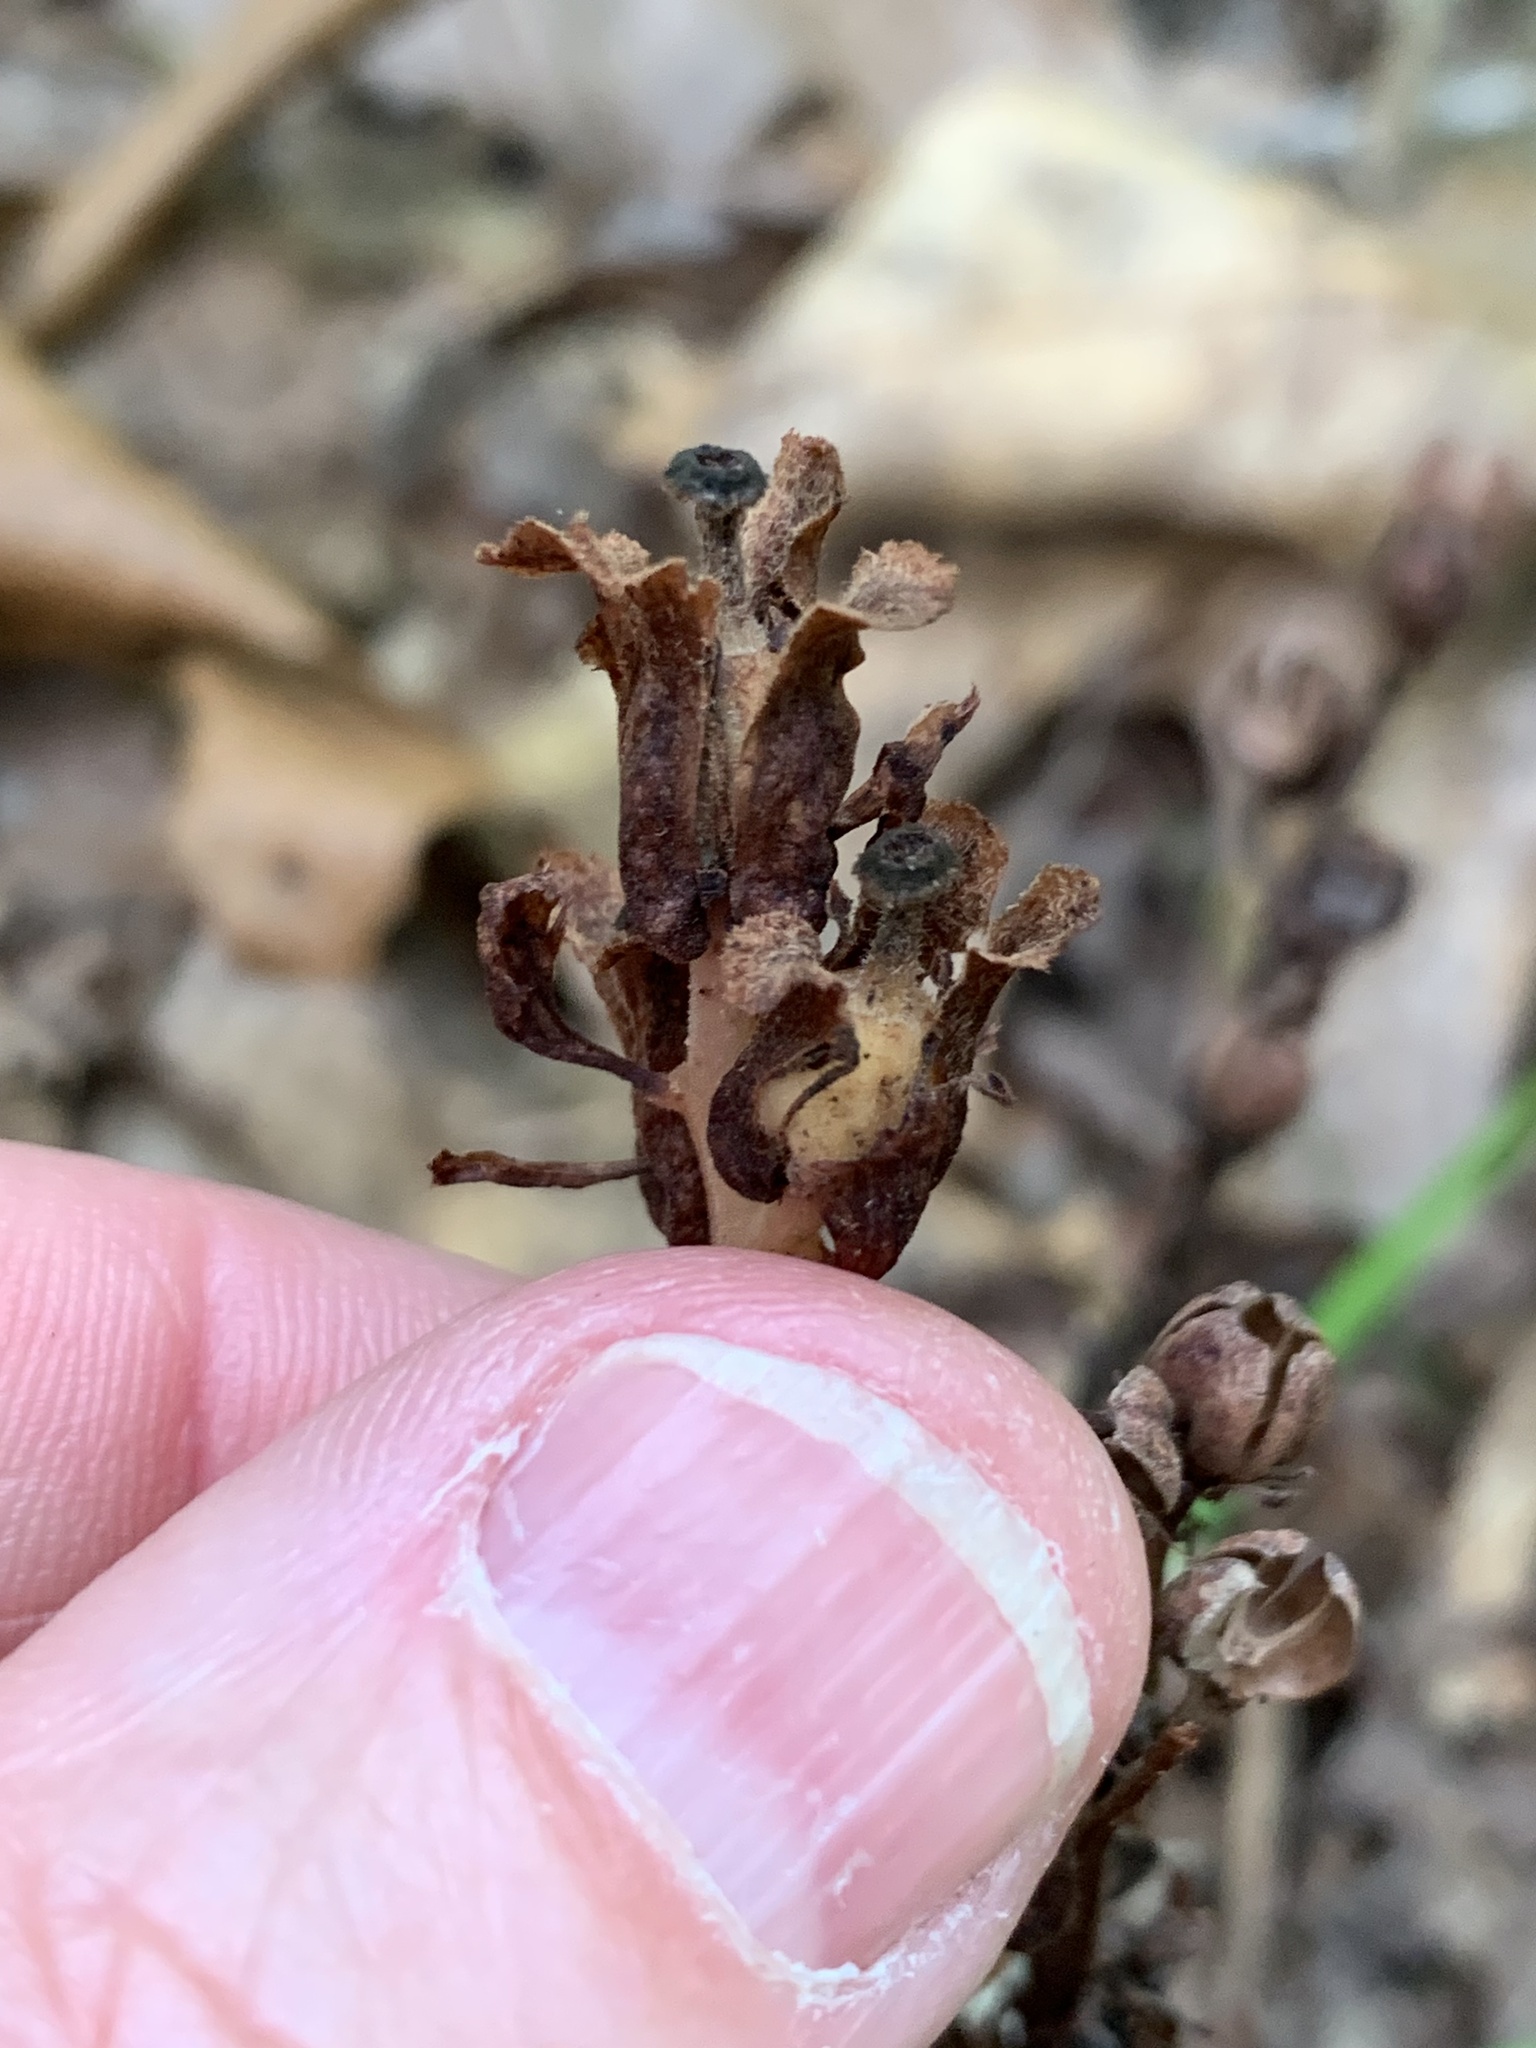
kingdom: Plantae
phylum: Tracheophyta
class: Magnoliopsida
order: Ericales
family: Ericaceae
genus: Hypopitys
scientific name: Hypopitys monotropa
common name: Yellow bird's-nest
